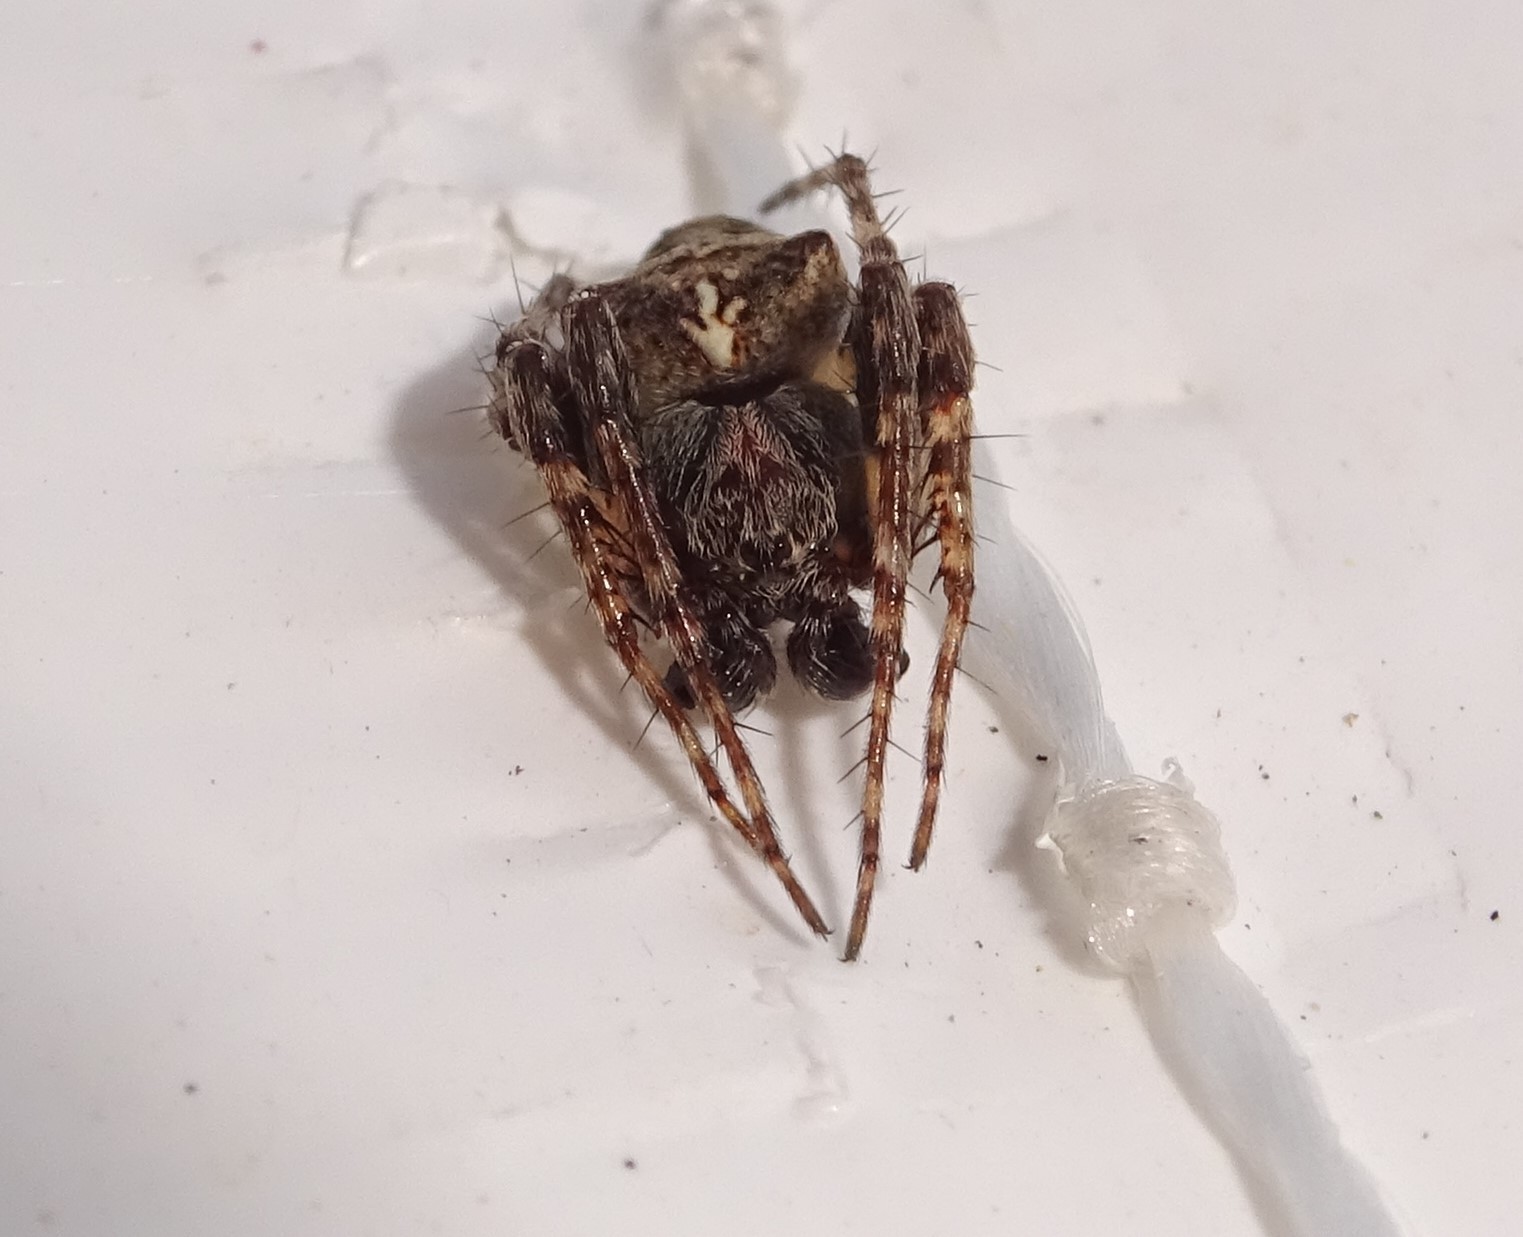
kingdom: Animalia
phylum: Arthropoda
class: Arachnida
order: Araneae
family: Araneidae
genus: Gibbaranea
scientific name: Gibbaranea bituberculata
